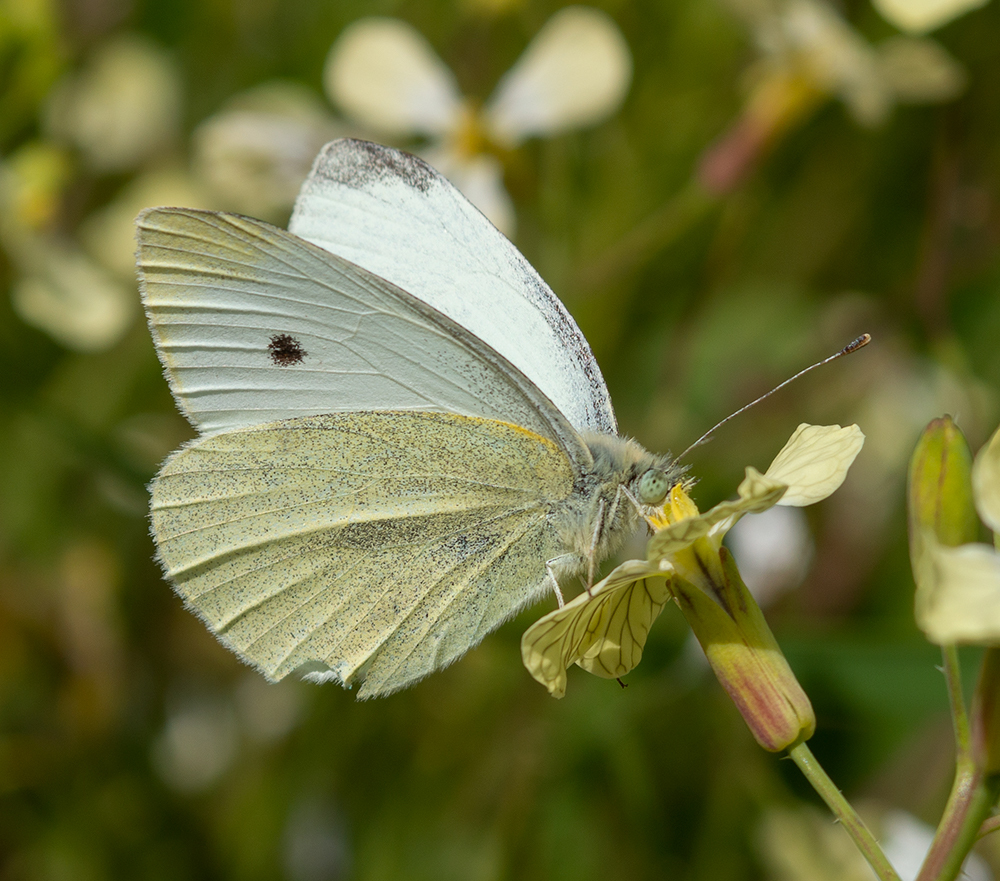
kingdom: Animalia
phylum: Arthropoda
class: Insecta
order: Lepidoptera
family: Pieridae
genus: Pieris
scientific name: Pieris rapae
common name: Small white
